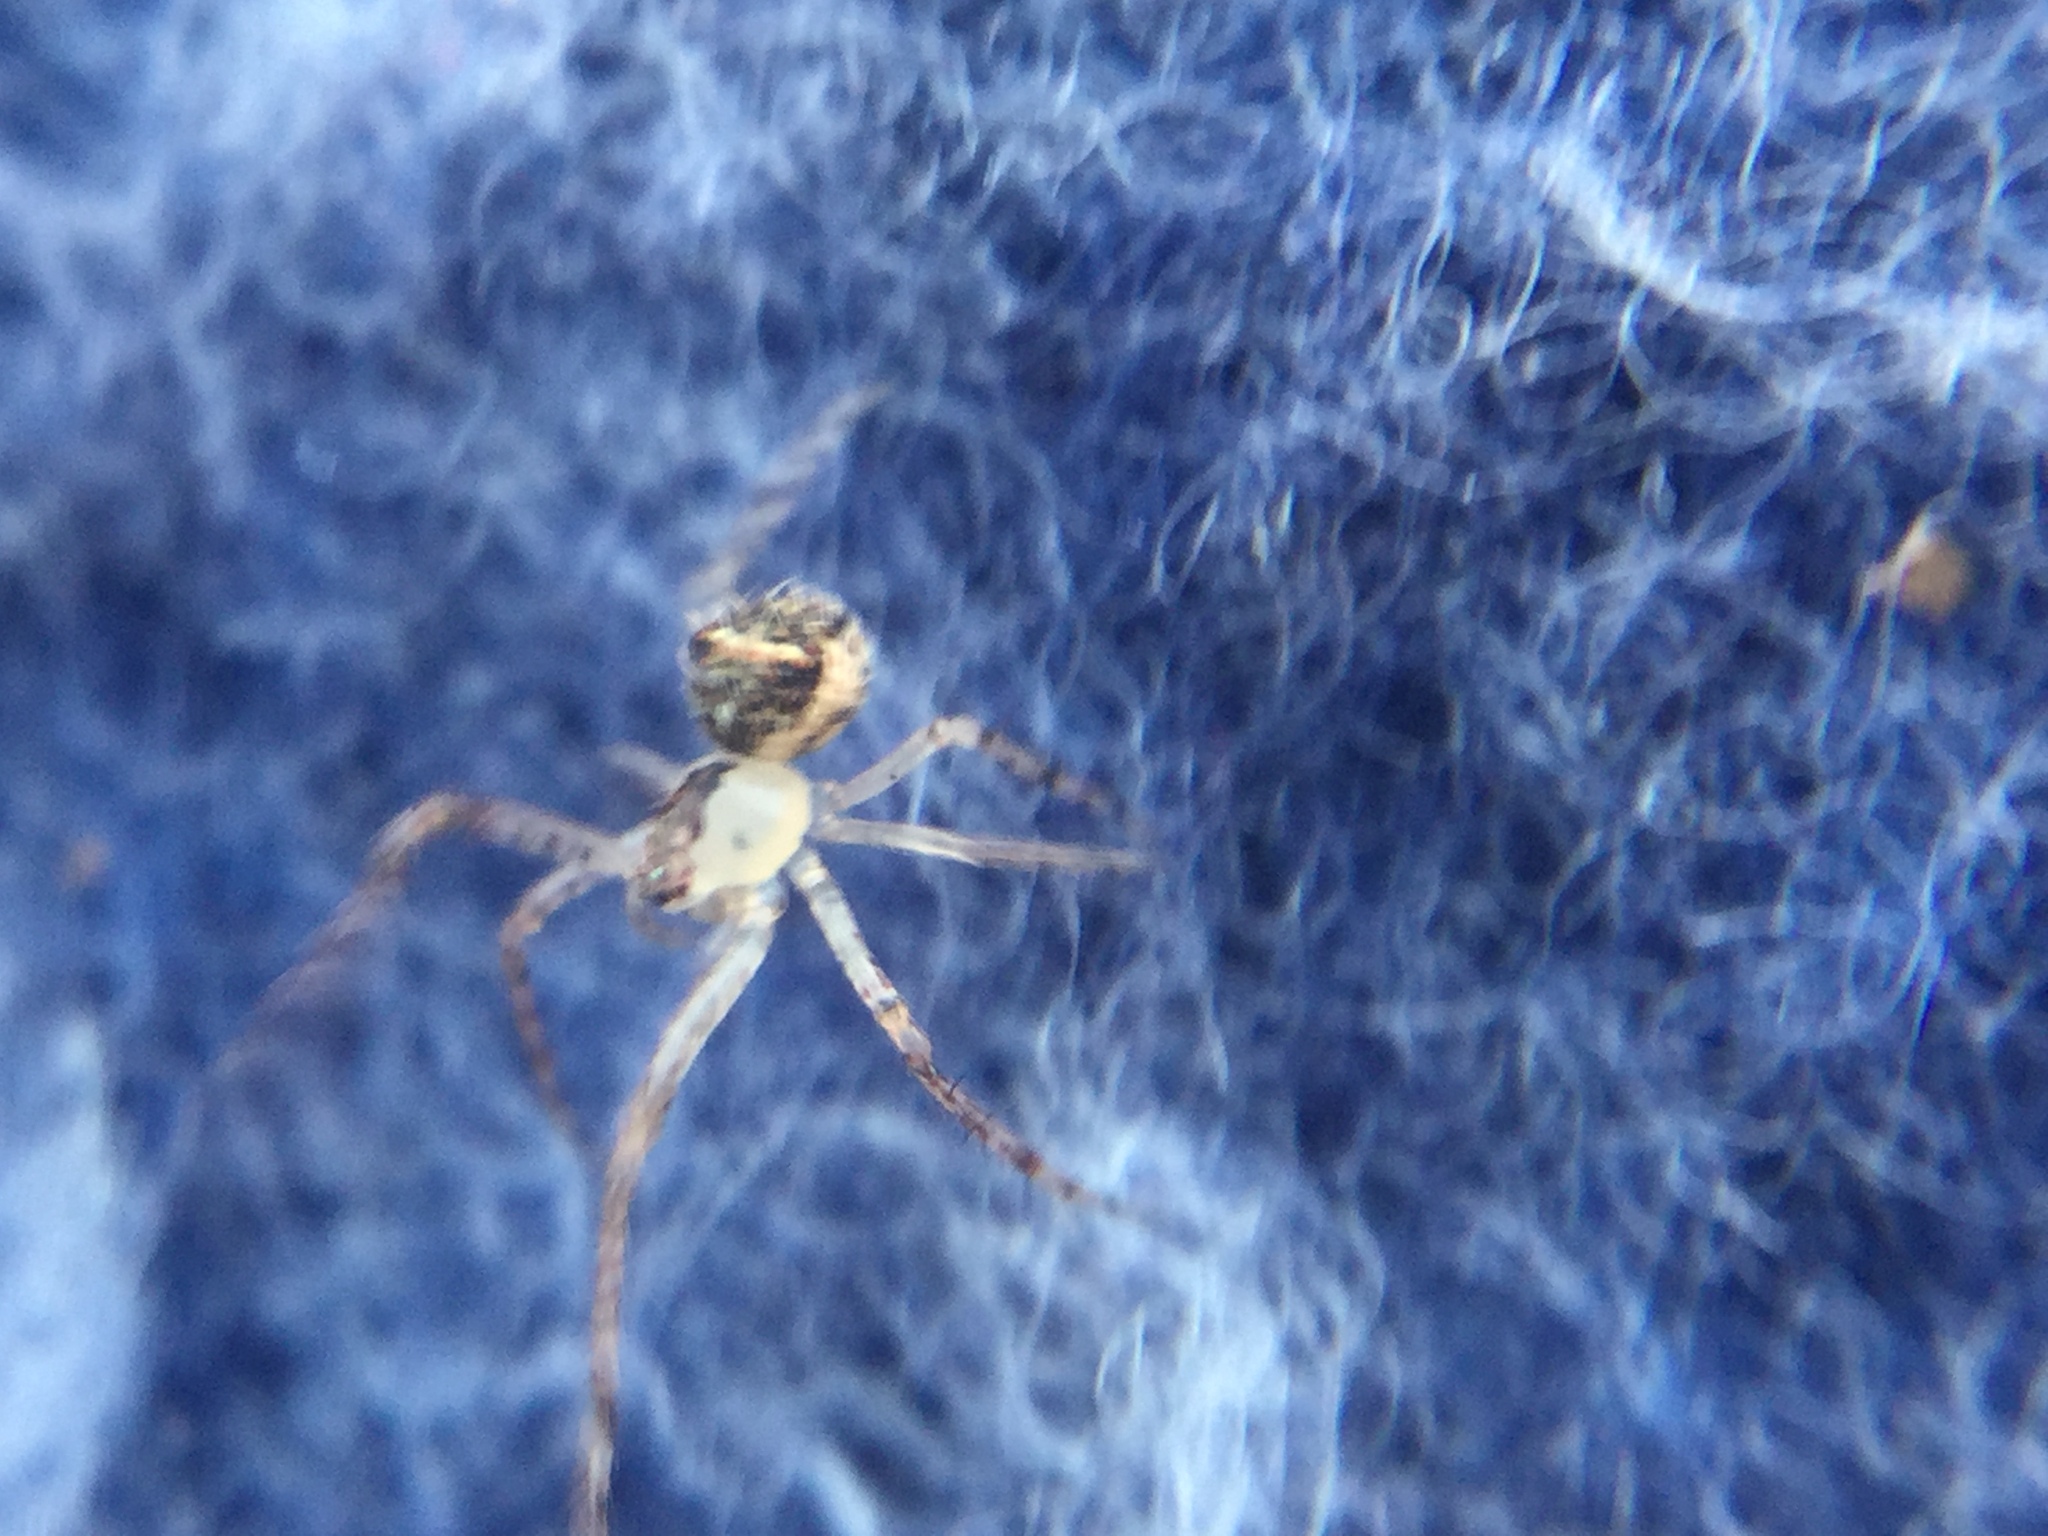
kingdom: Animalia
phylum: Arthropoda
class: Arachnida
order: Araneae
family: Mimetidae
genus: Mimetus
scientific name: Mimetus puritanus
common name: Common pirate spider
